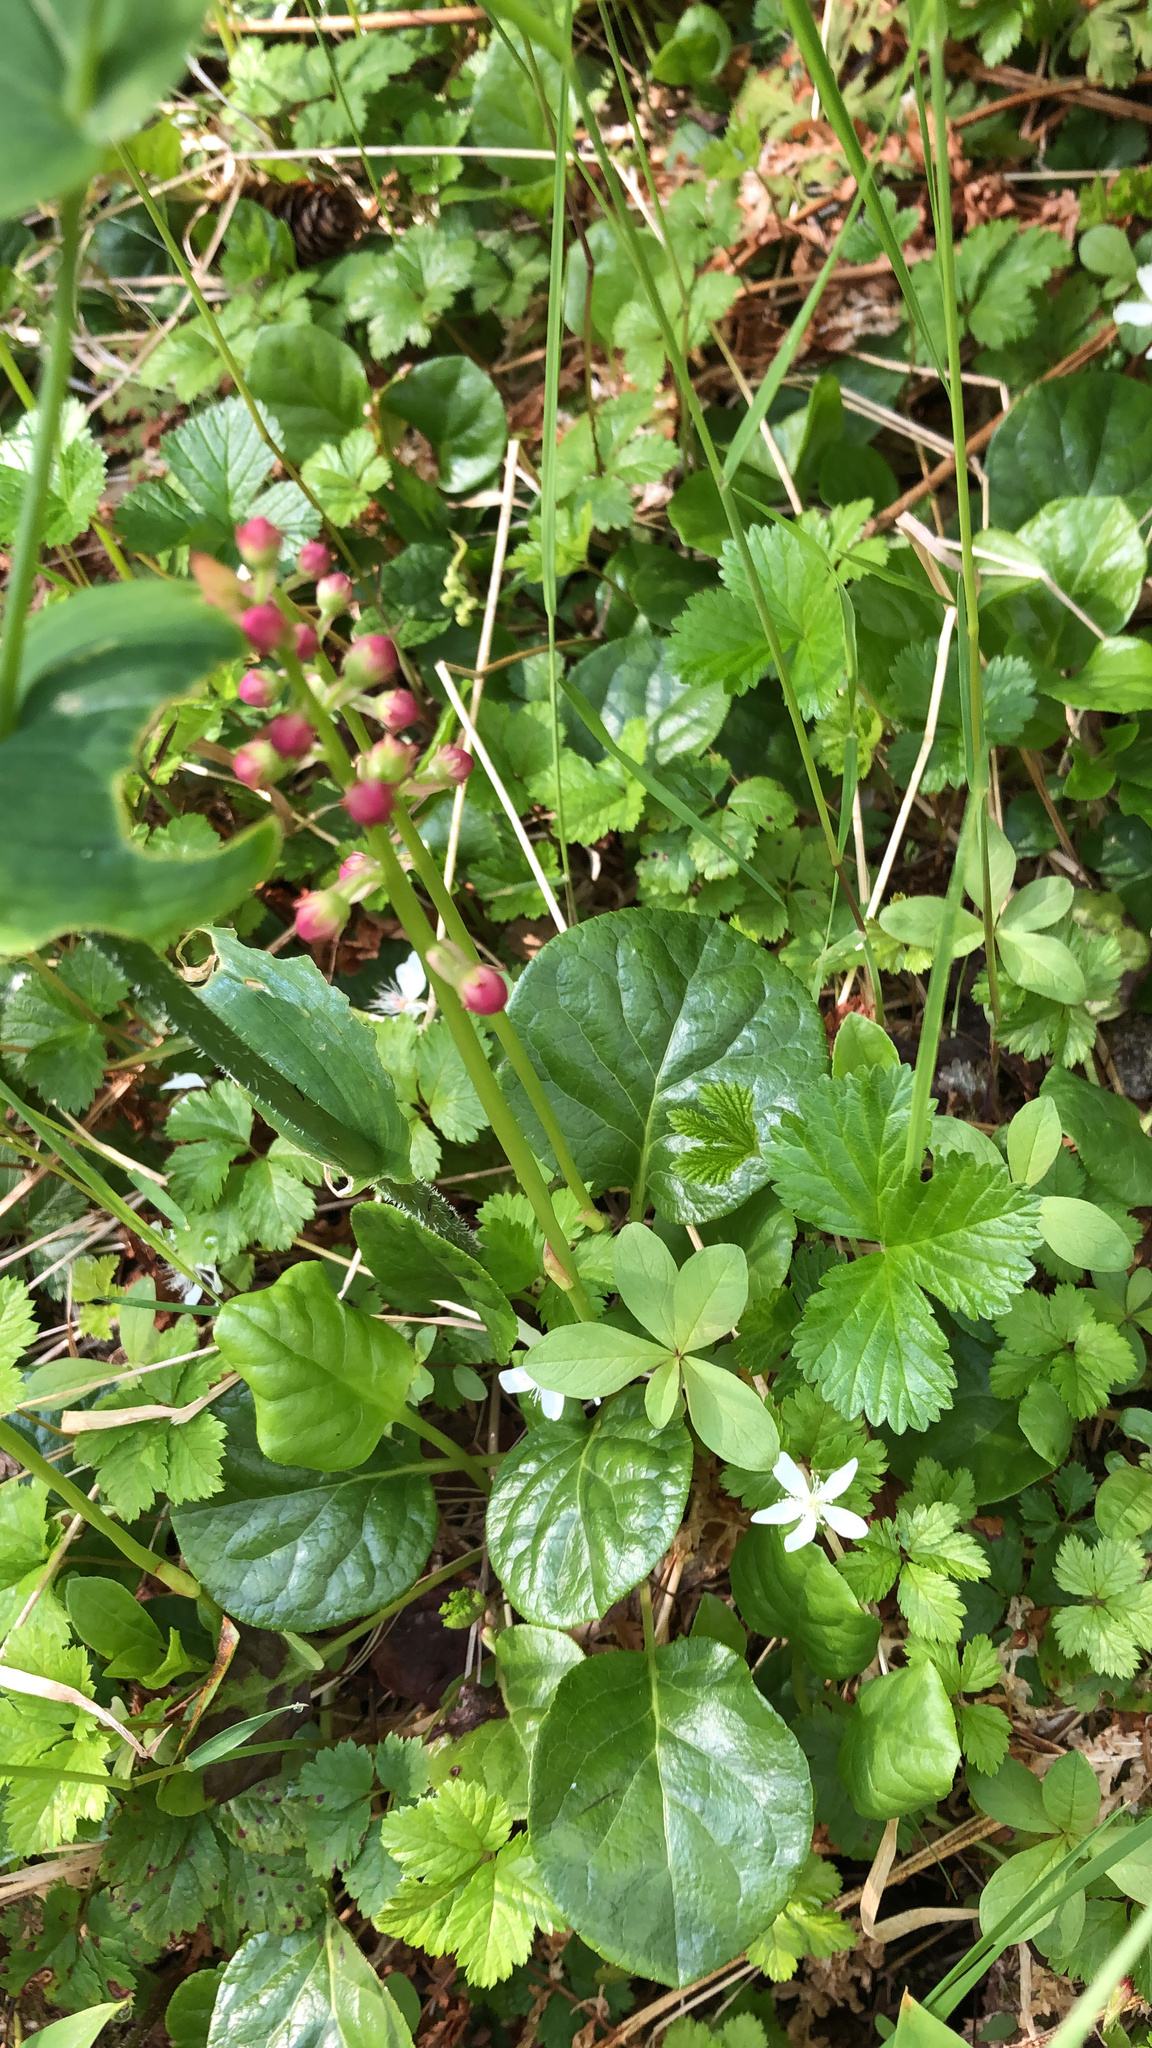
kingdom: Plantae
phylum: Tracheophyta
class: Magnoliopsida
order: Ericales
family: Ericaceae
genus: Pyrola
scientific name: Pyrola asarifolia
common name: Bog wintergreen
